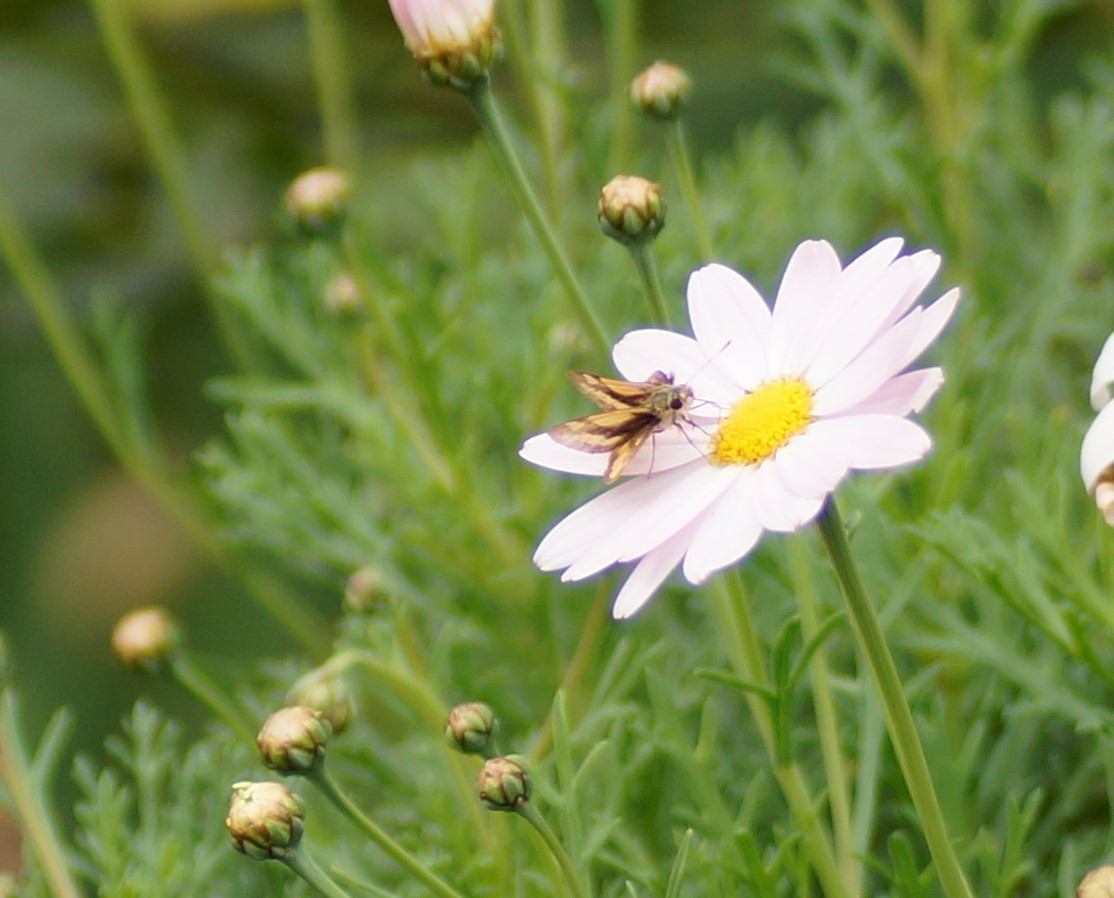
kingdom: Animalia
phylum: Arthropoda
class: Insecta
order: Lepidoptera
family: Hesperiidae
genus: Ocybadistes
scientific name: Ocybadistes walkeri
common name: Yellow-banded dart
